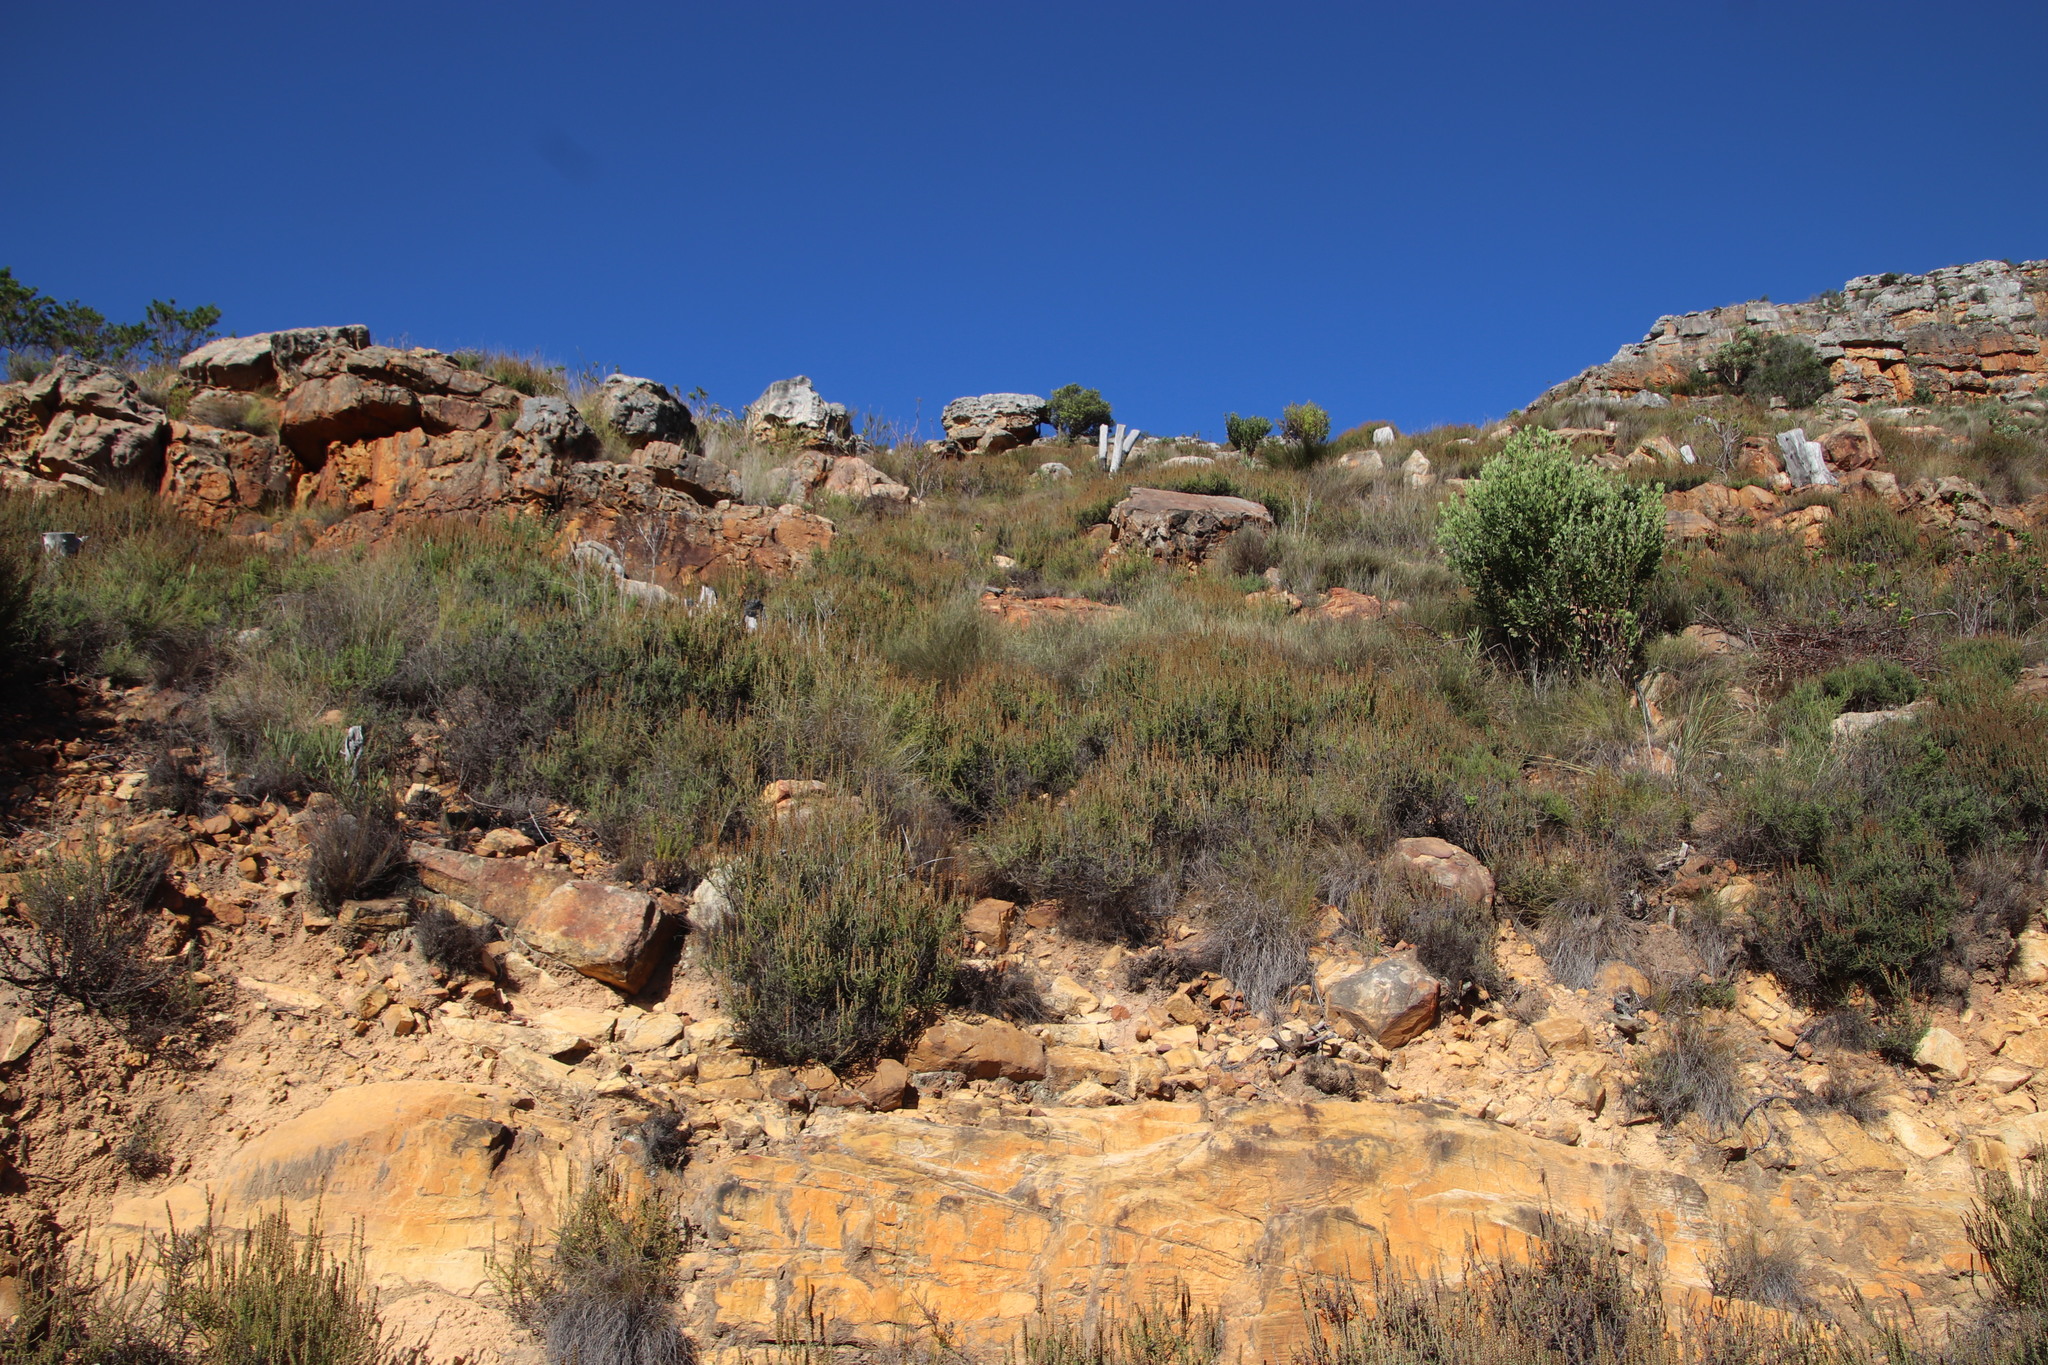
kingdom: Plantae
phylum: Tracheophyta
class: Magnoliopsida
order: Asterales
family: Asteraceae
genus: Seriphium
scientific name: Seriphium cinereum
